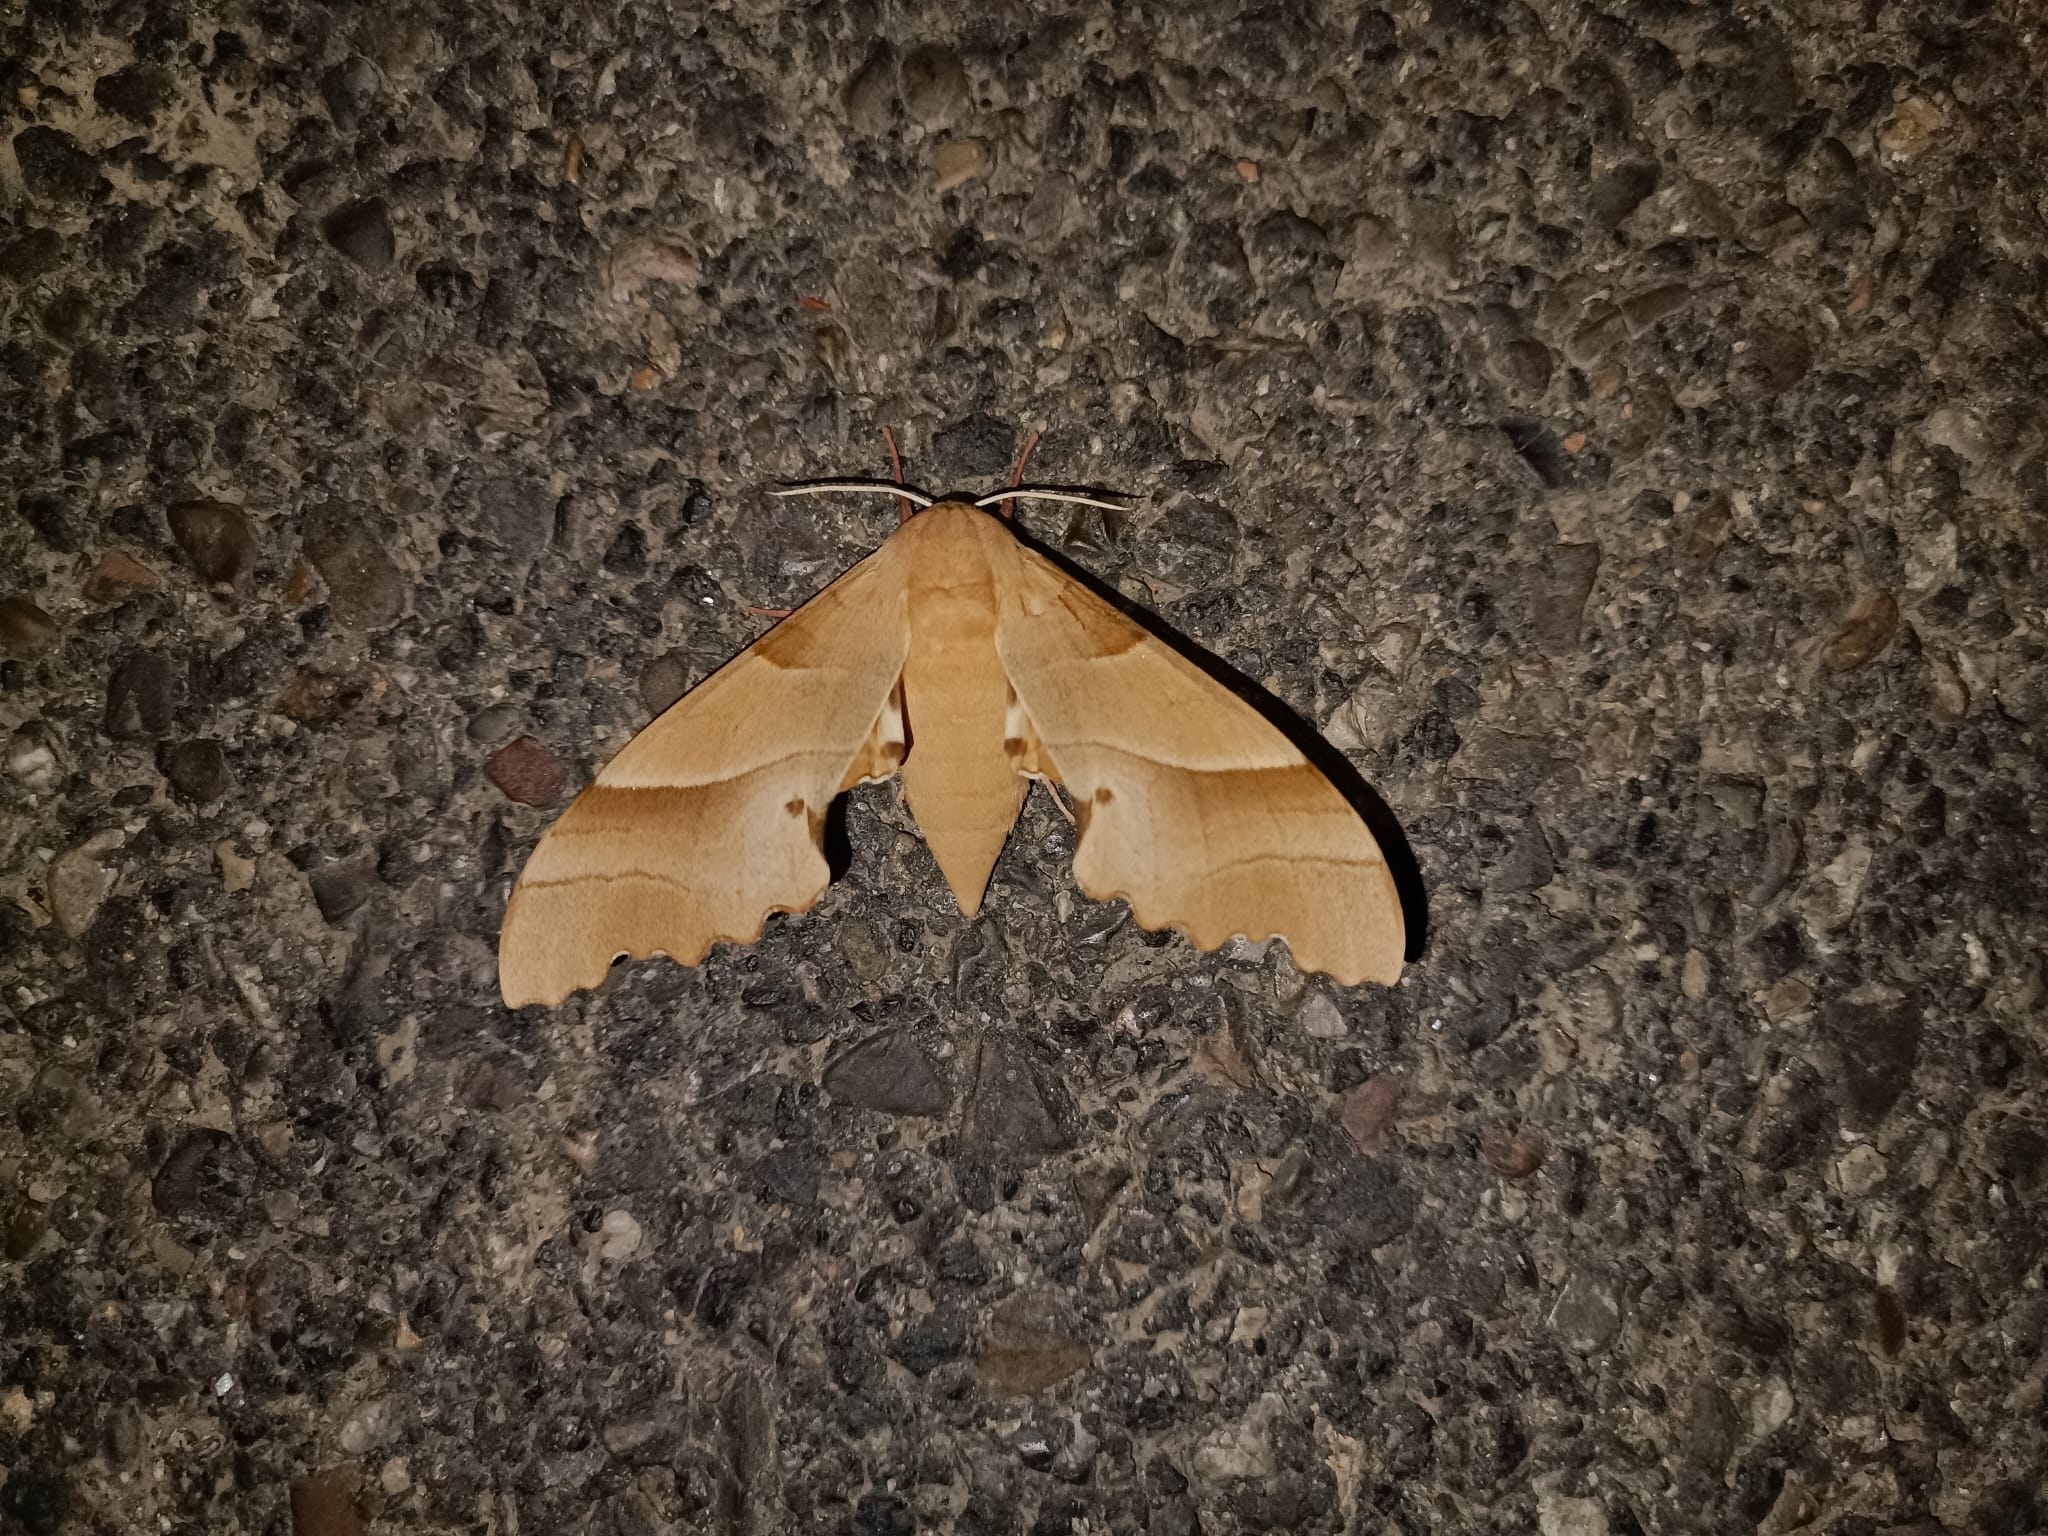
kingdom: Animalia
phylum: Arthropoda
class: Insecta
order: Lepidoptera
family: Sphingidae
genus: Marumba
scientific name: Marumba quercus
